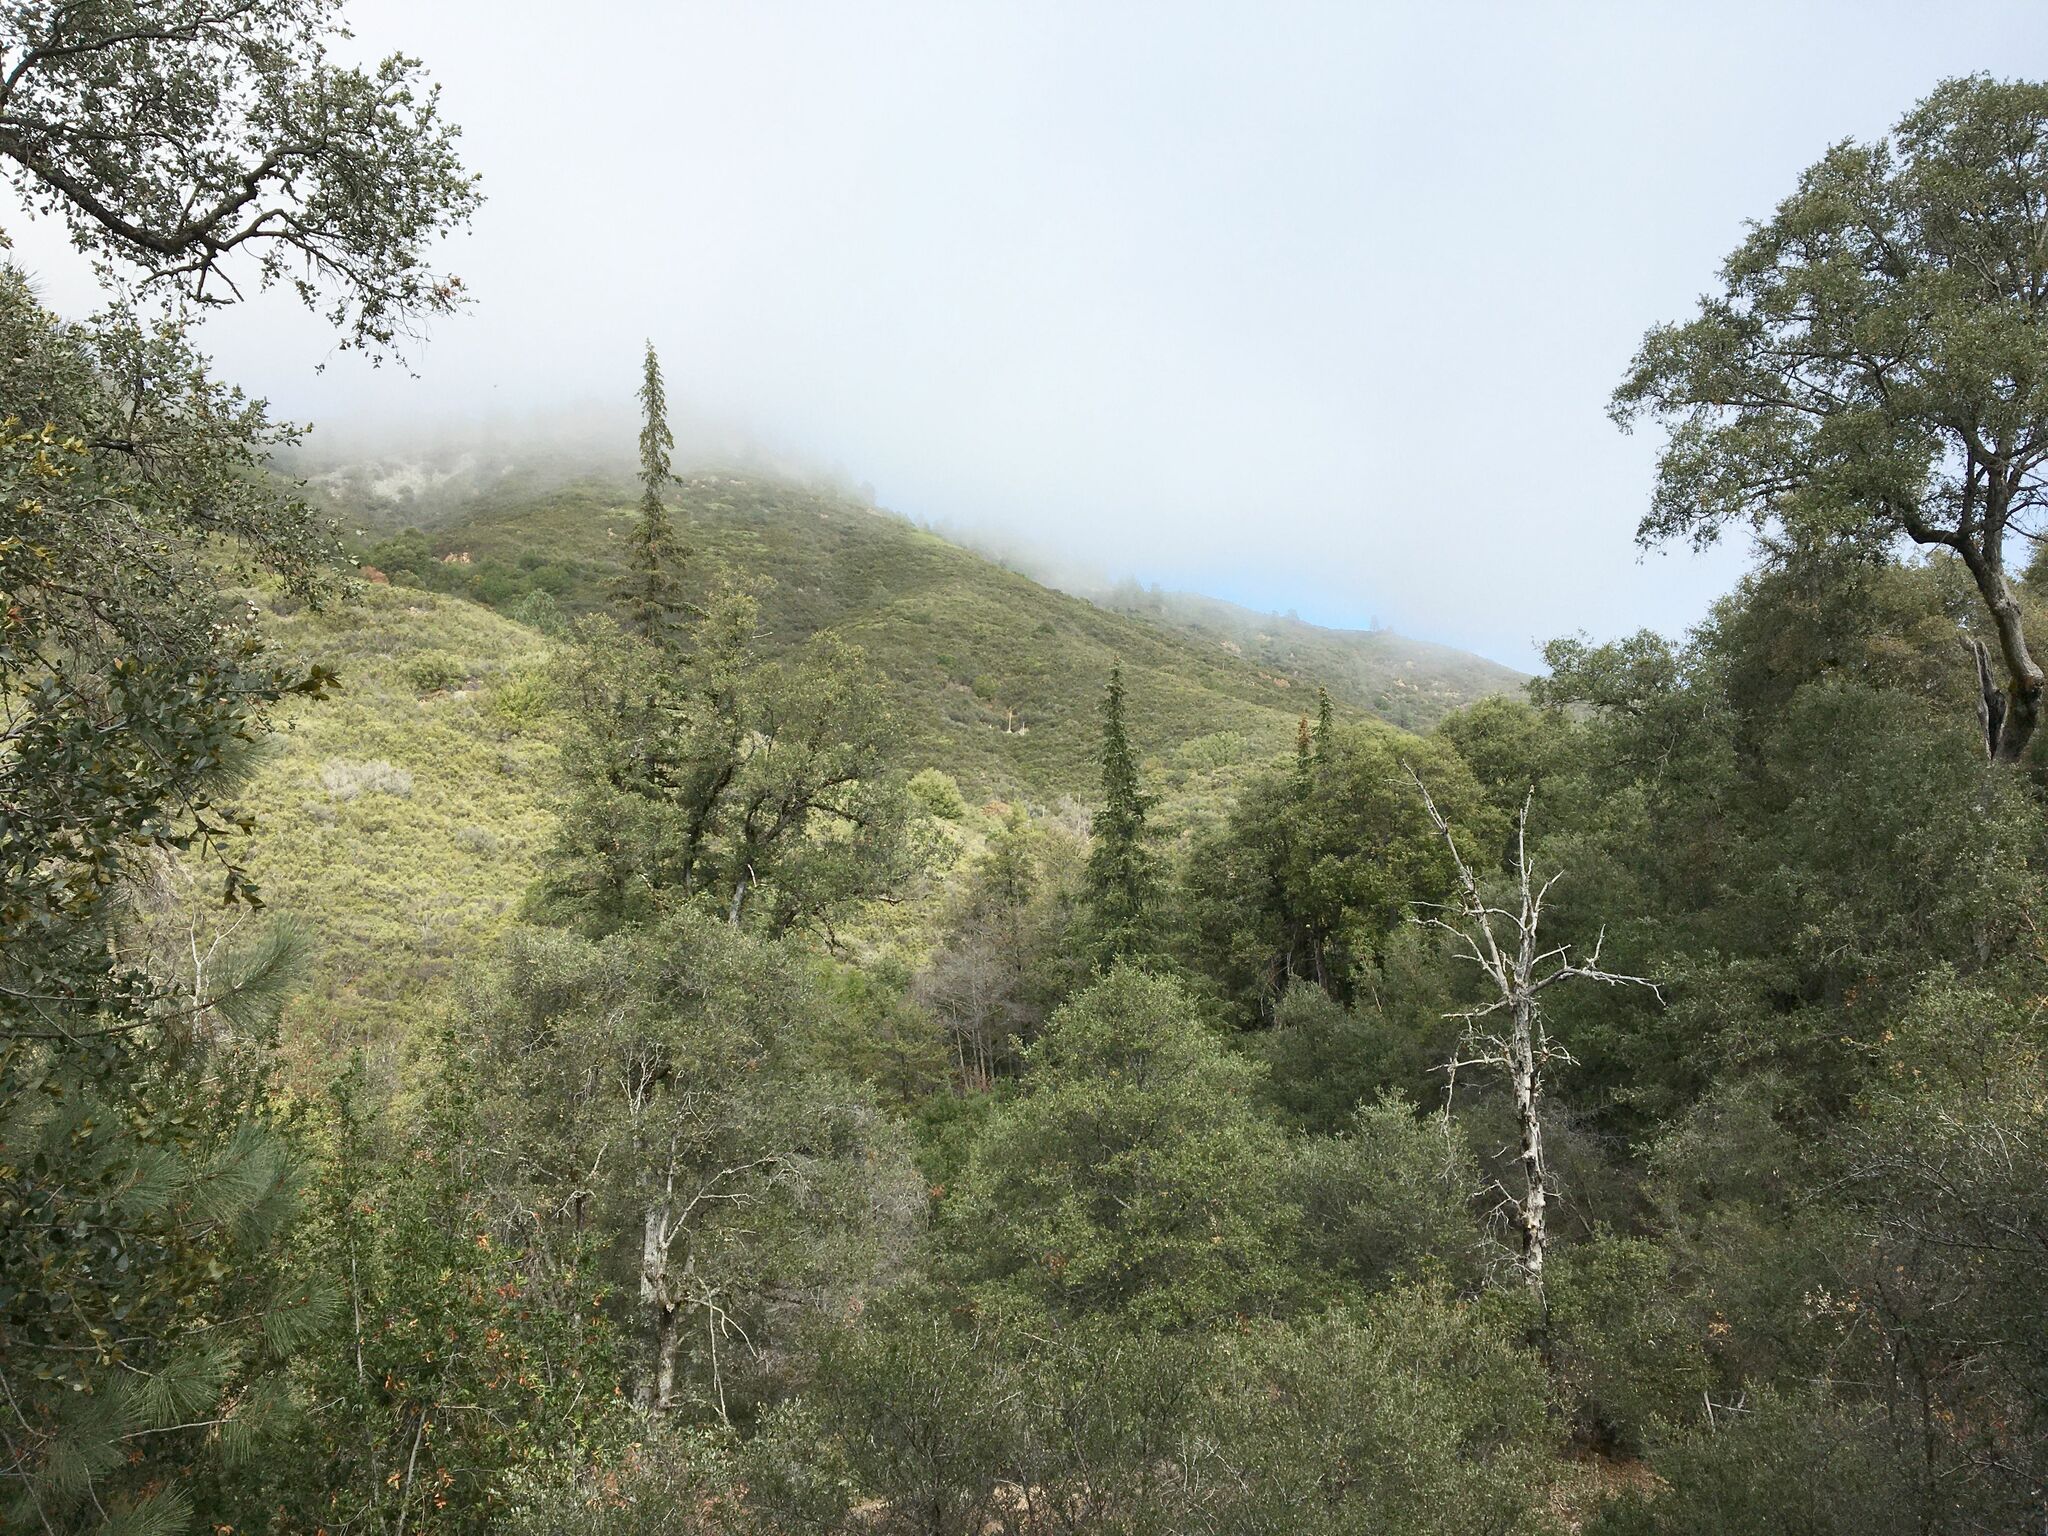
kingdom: Plantae
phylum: Tracheophyta
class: Pinopsida
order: Pinales
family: Pinaceae
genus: Abies
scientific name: Abies bracteata
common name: Bristlecone fir
